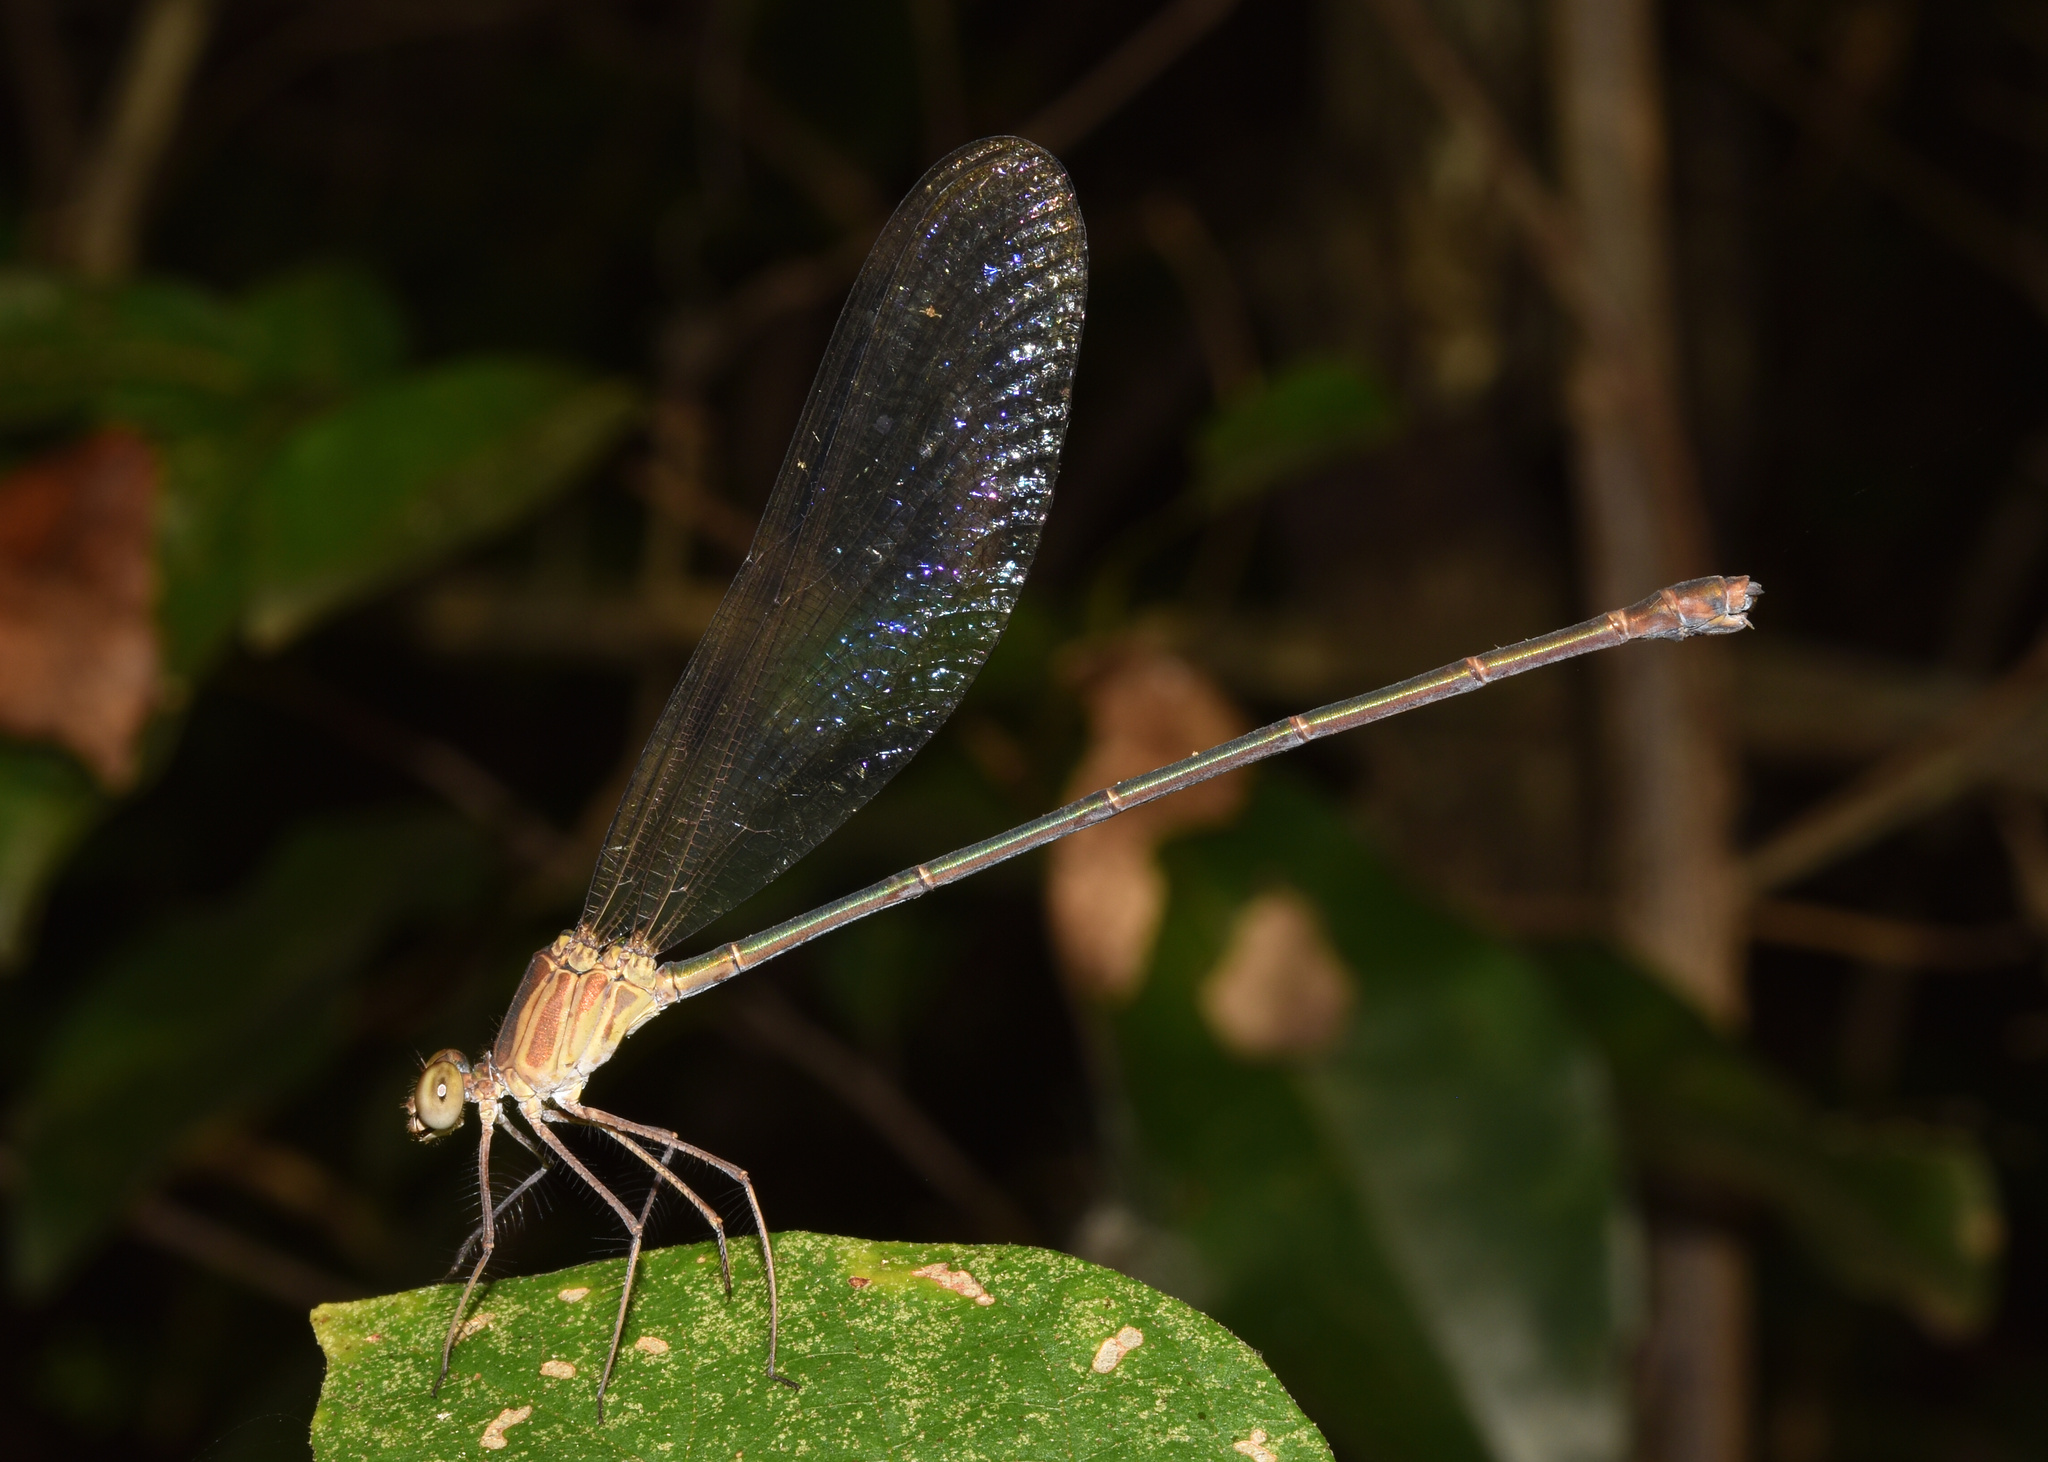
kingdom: Animalia
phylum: Arthropoda
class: Insecta
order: Odonata
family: Calopterygidae
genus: Phaon
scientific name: Phaon iridipennis
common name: Glistening demoiselle
